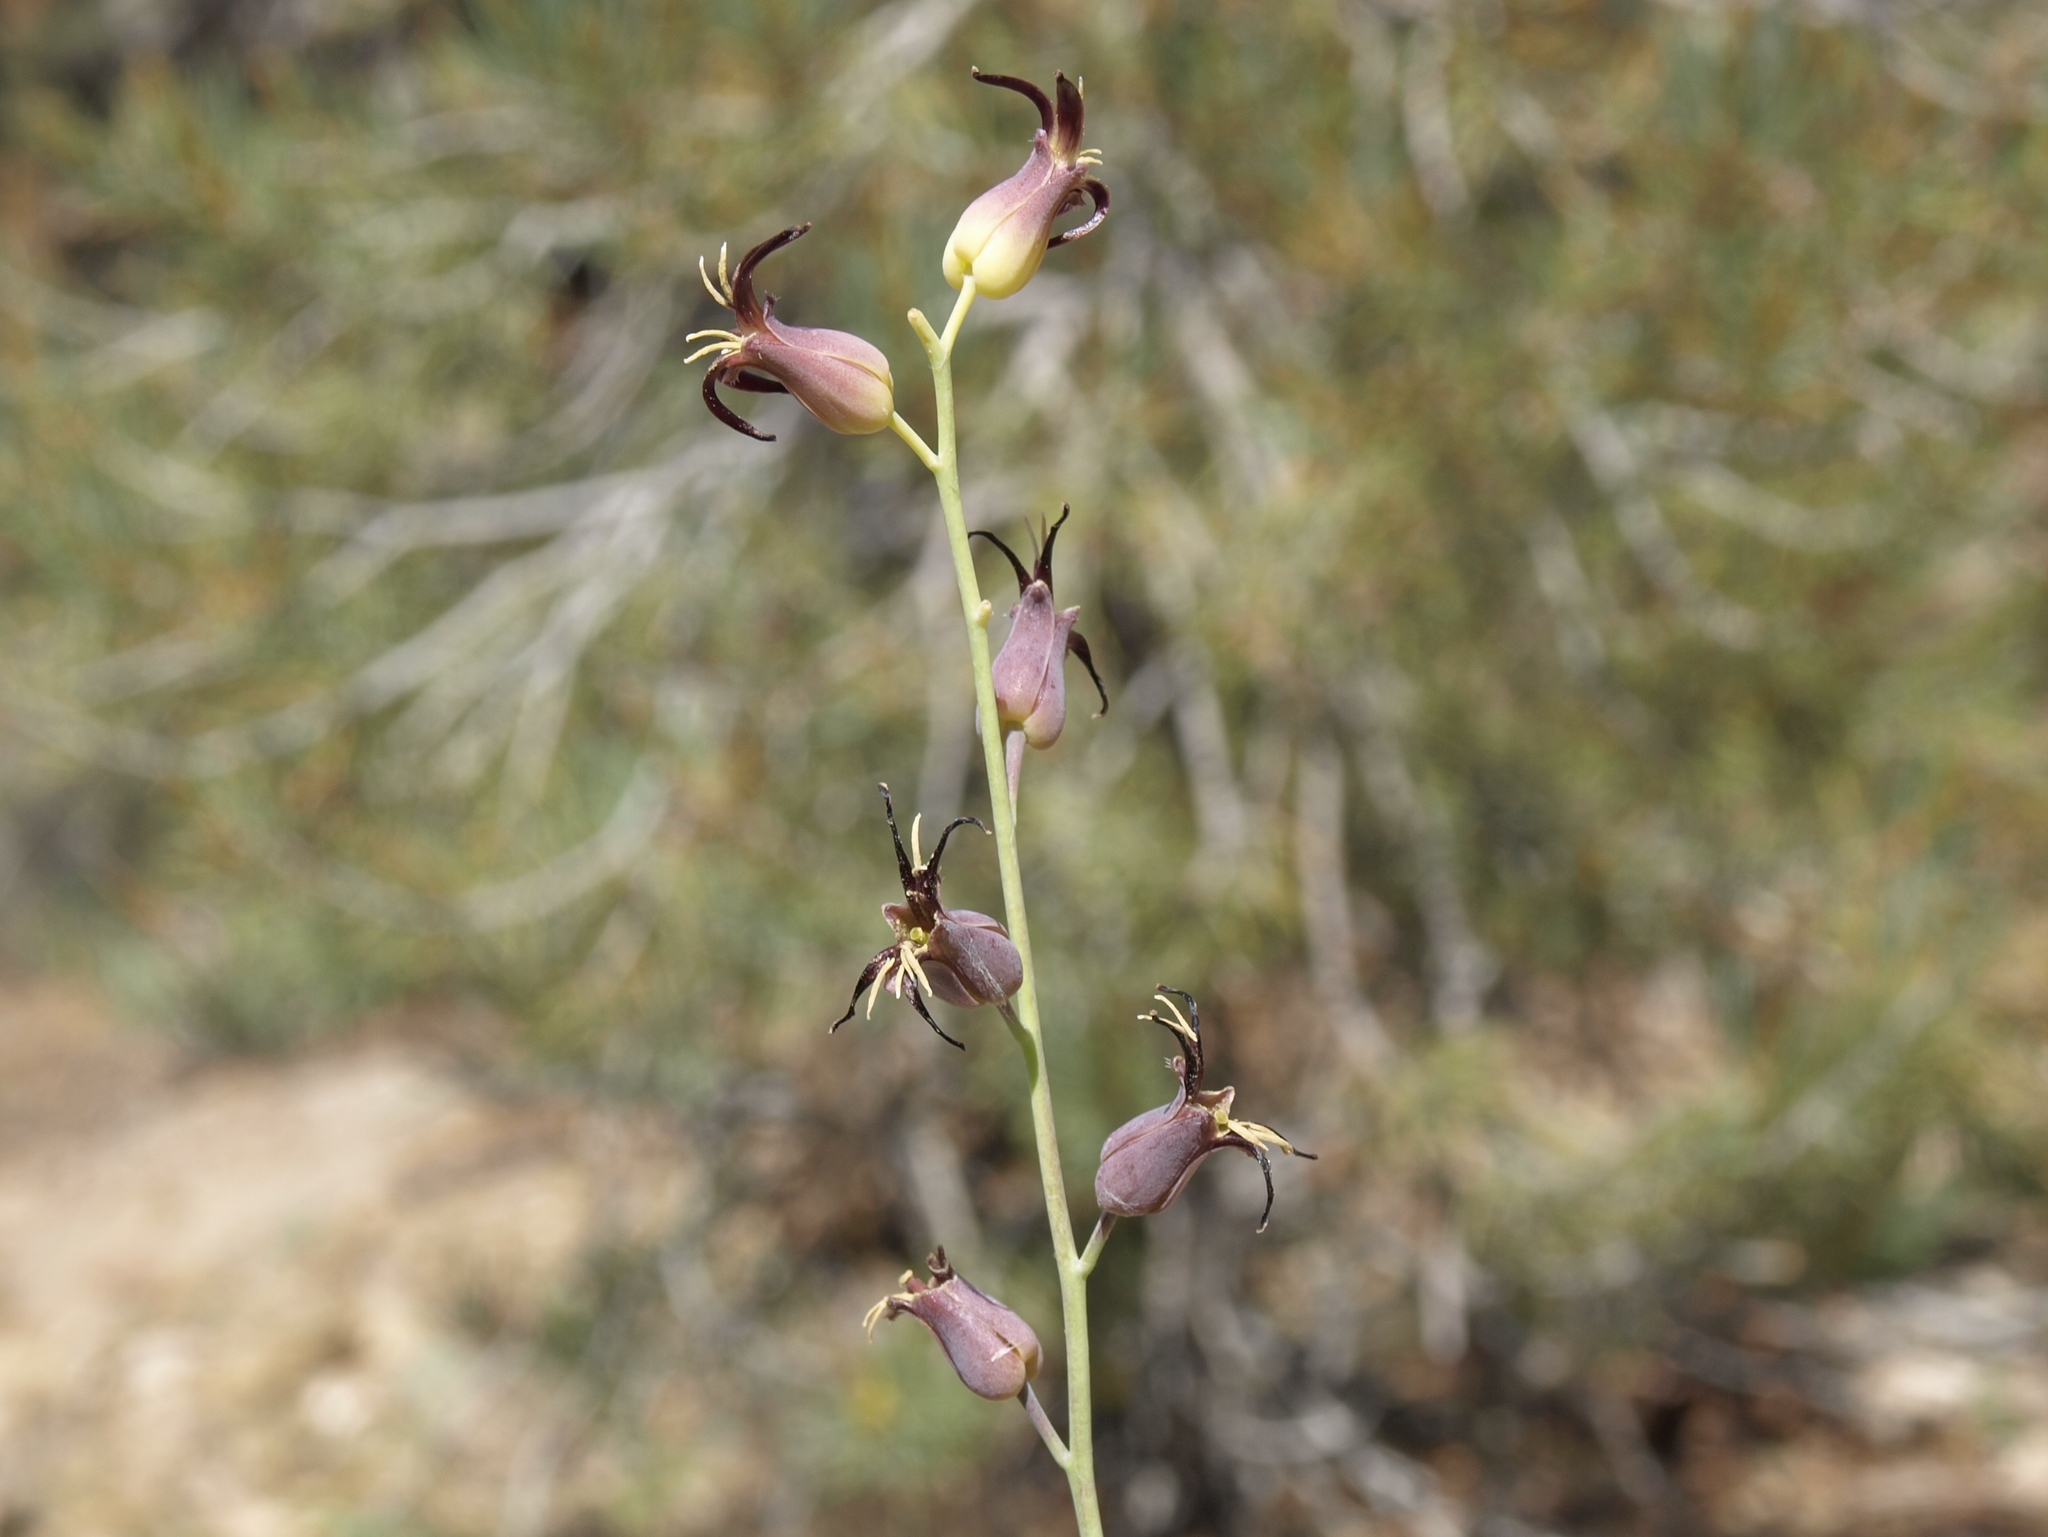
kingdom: Plantae
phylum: Tracheophyta
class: Magnoliopsida
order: Brassicales
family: Brassicaceae
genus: Streptanthus
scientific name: Streptanthus cordatus
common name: Heart-leaf jewel-flower
